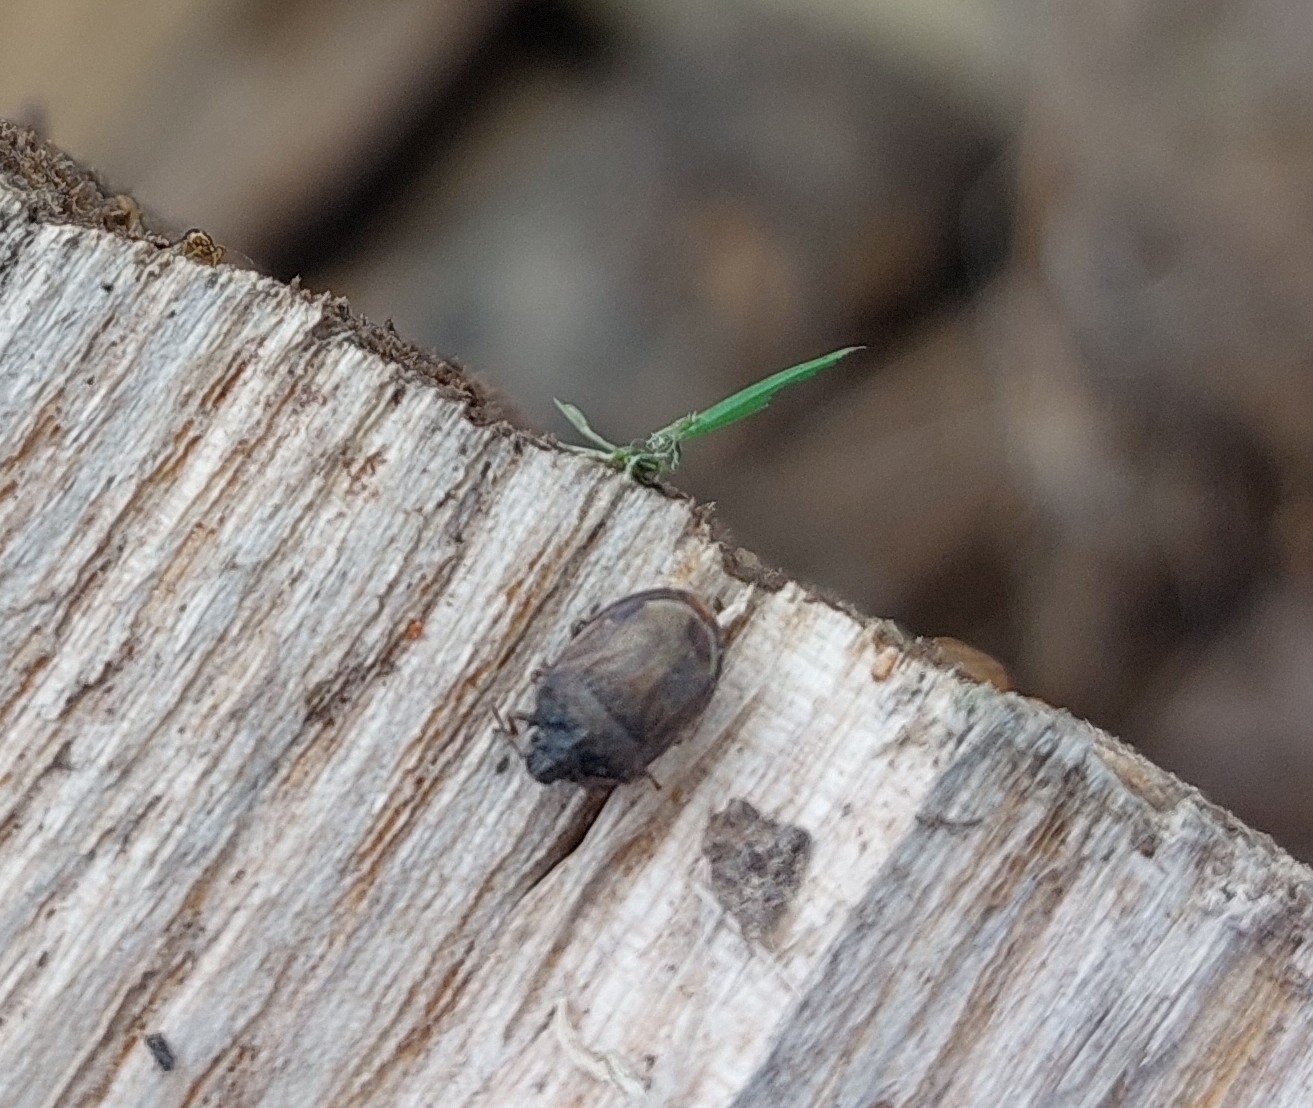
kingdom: Animalia
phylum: Arthropoda
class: Insecta
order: Hemiptera
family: Pentatomidae
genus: Podops
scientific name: Podops inunctus
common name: Turtle bug
